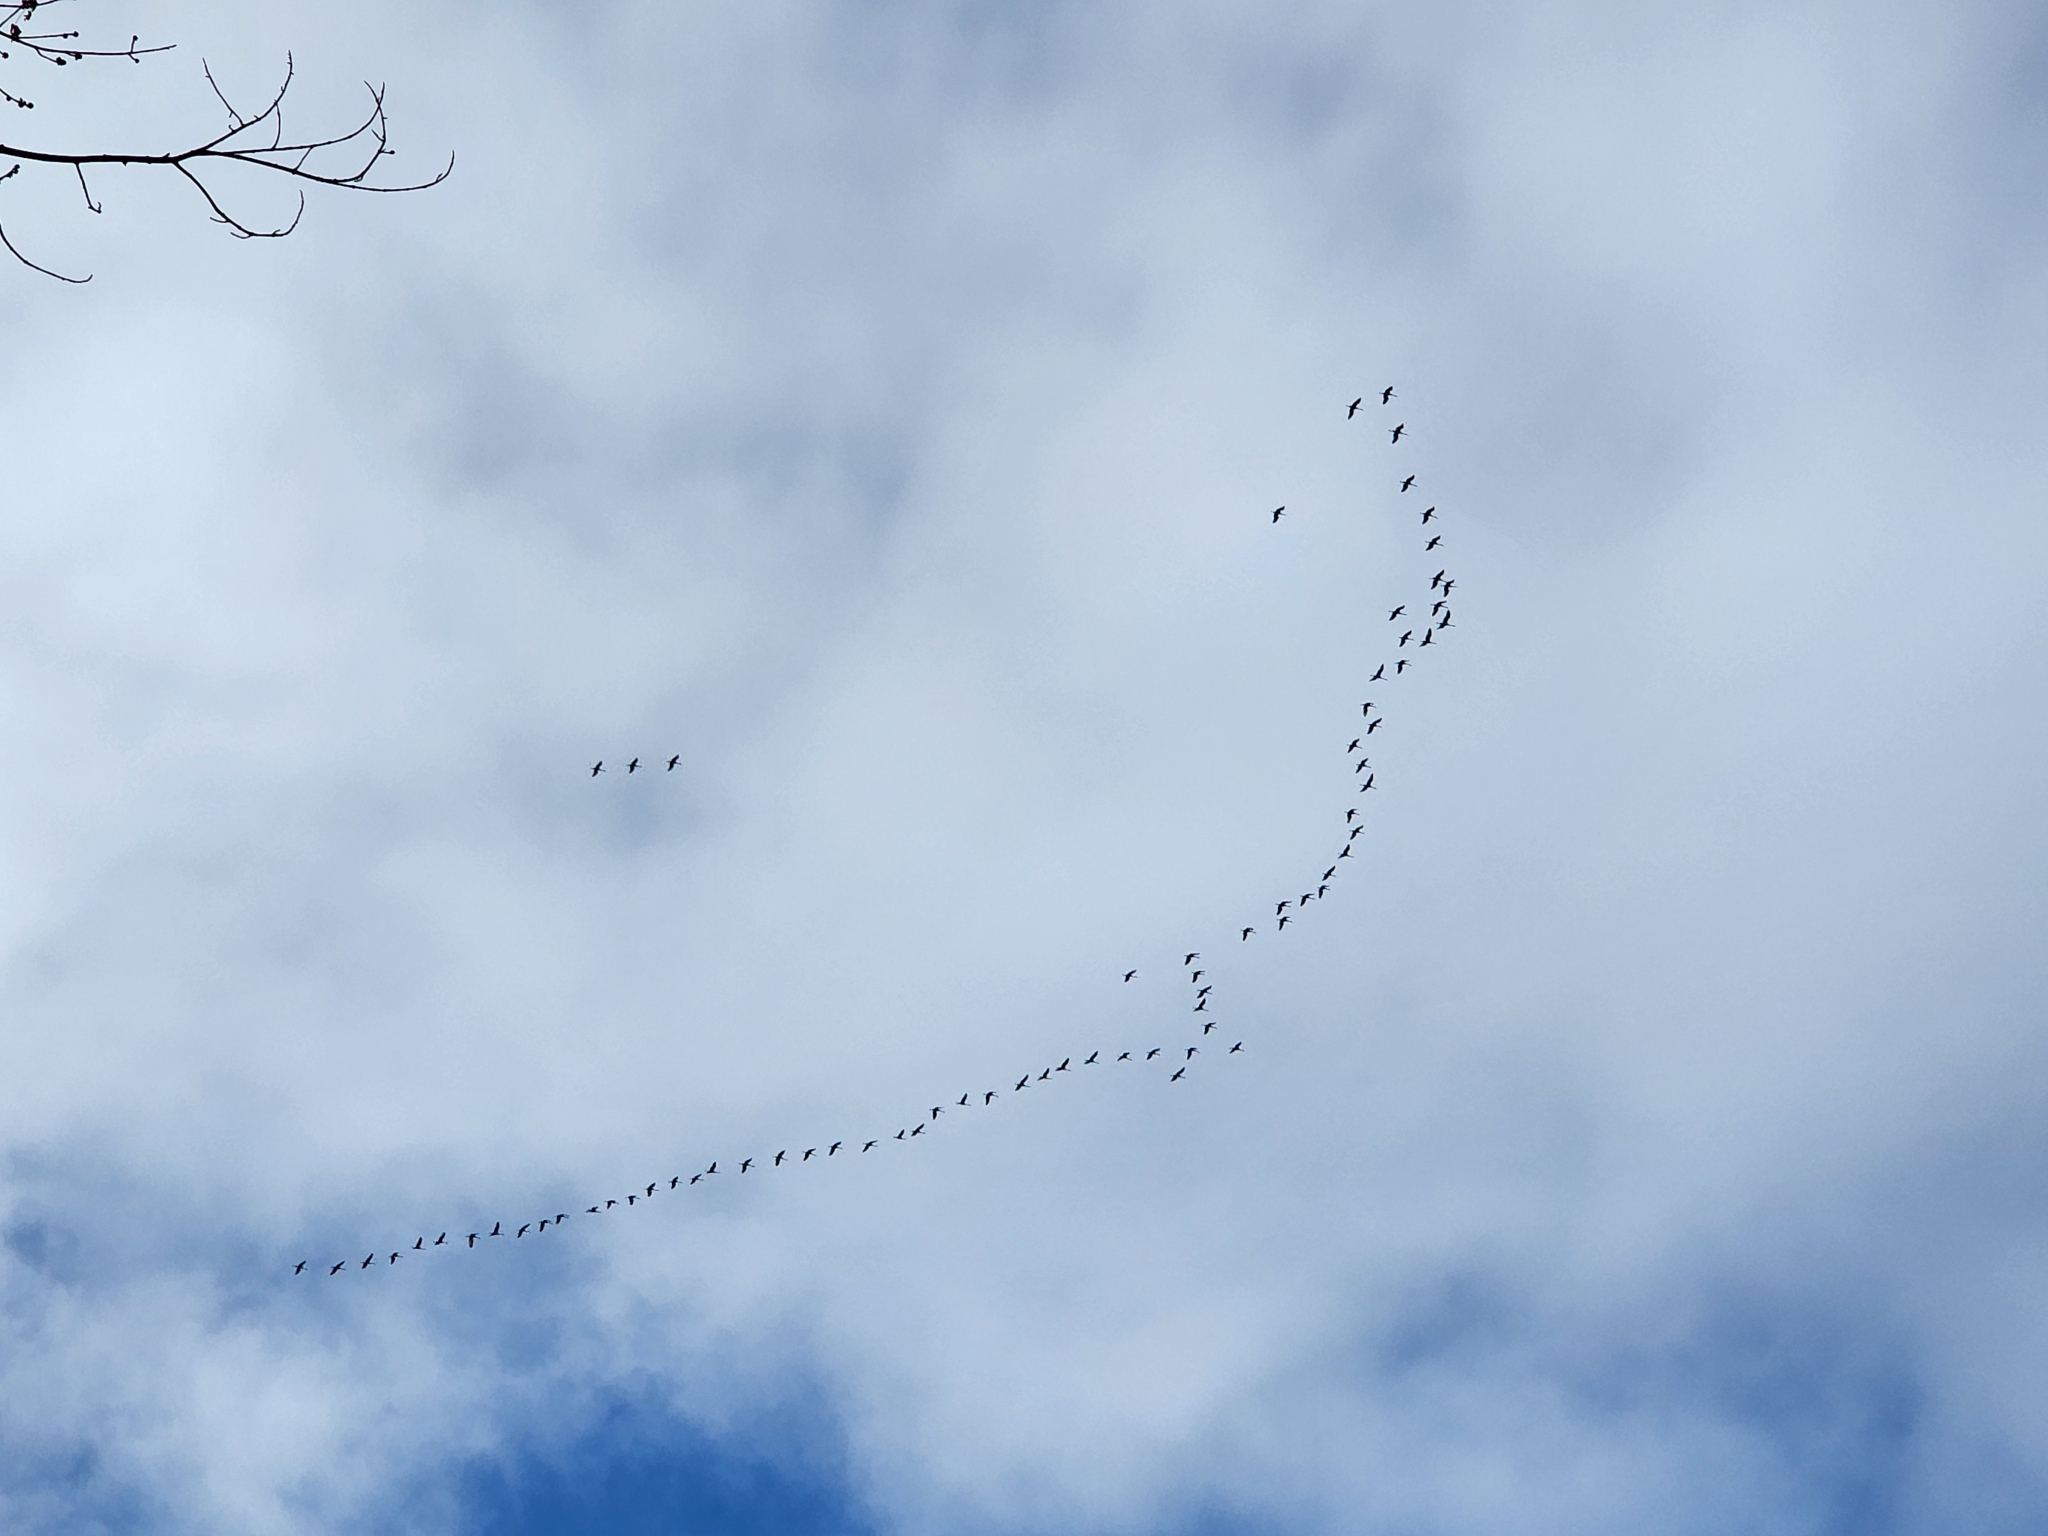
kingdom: Animalia
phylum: Chordata
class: Aves
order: Gruiformes
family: Gruidae
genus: Grus
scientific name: Grus canadensis
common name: Sandhill crane
